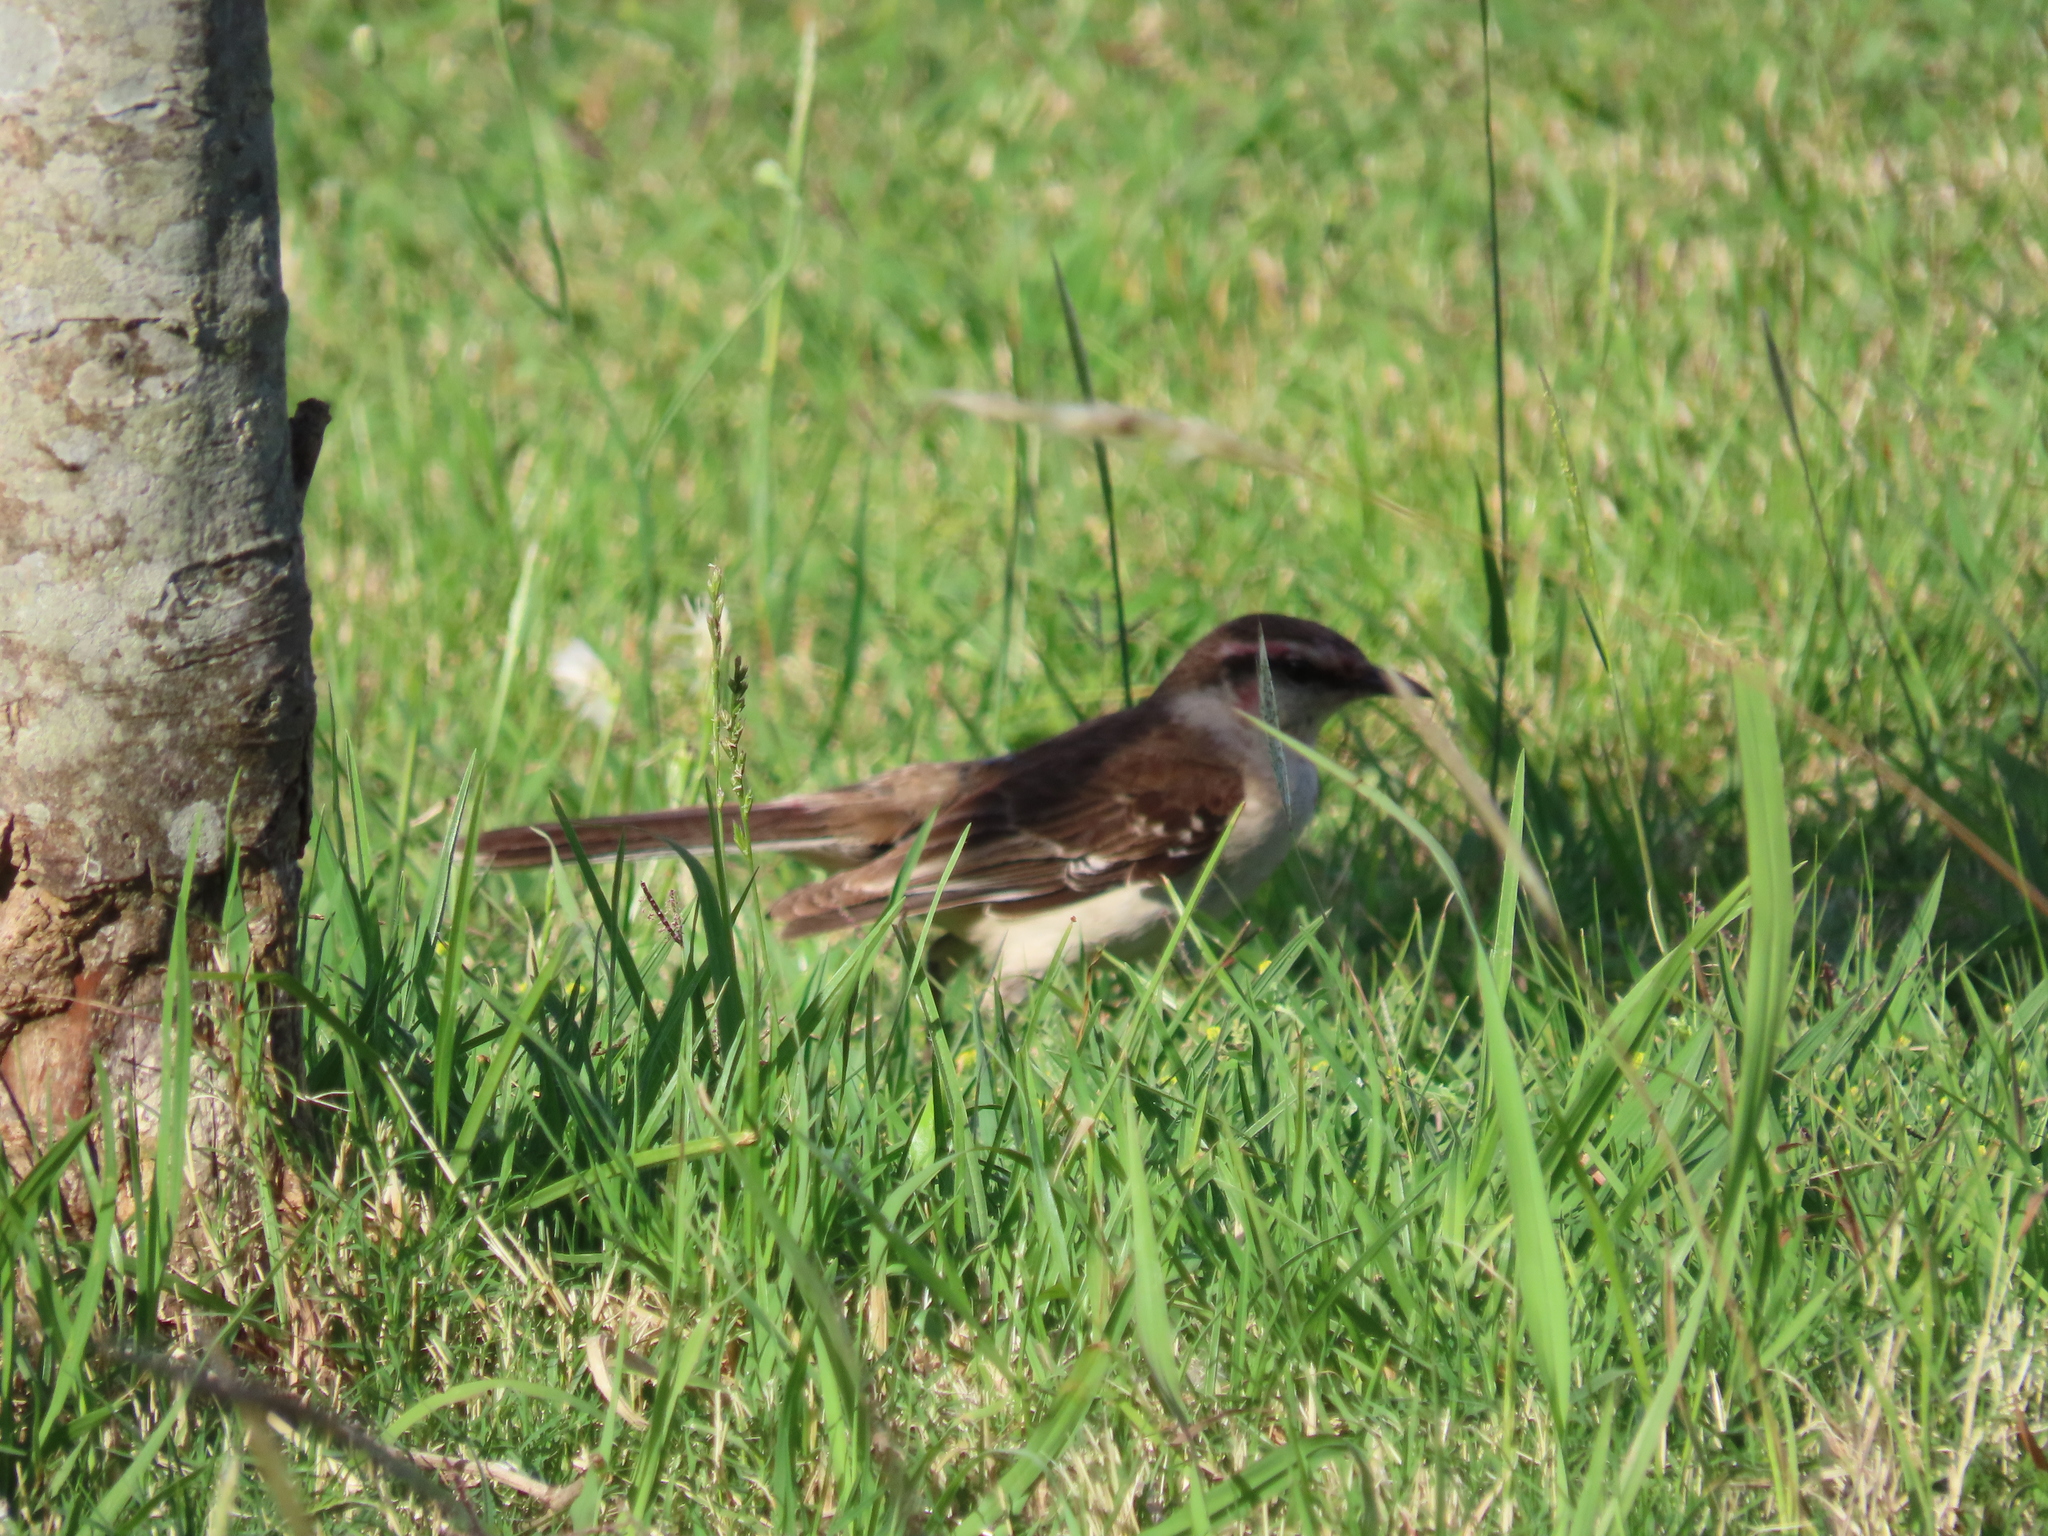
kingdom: Animalia
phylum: Chordata
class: Aves
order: Passeriformes
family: Mimidae
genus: Mimus
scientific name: Mimus saturninus
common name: Chalk-browed mockingbird
